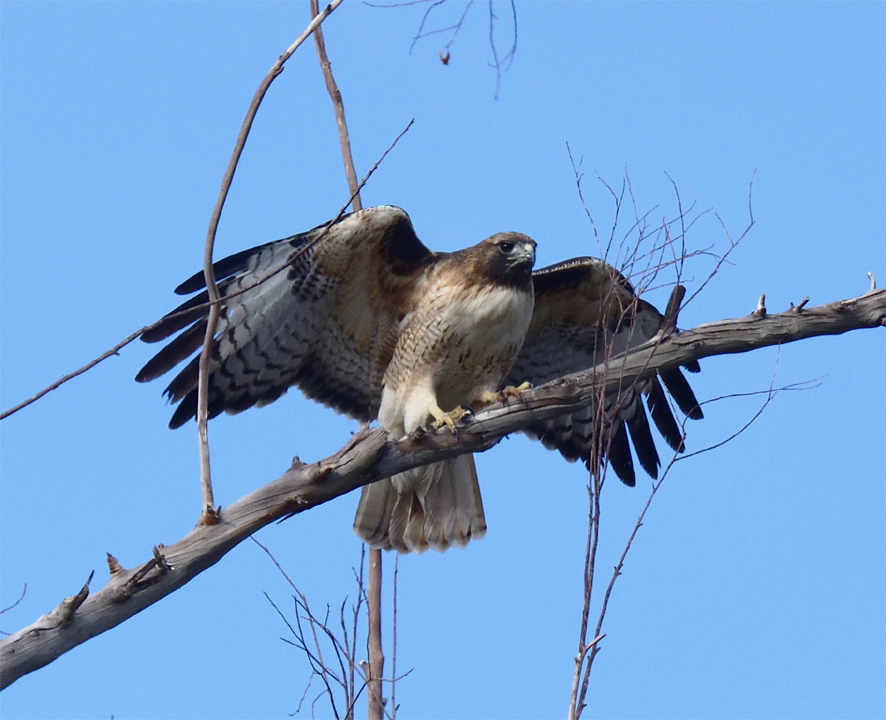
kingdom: Animalia
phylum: Chordata
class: Aves
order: Accipitriformes
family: Accipitridae
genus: Buteo
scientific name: Buteo jamaicensis
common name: Red-tailed hawk
